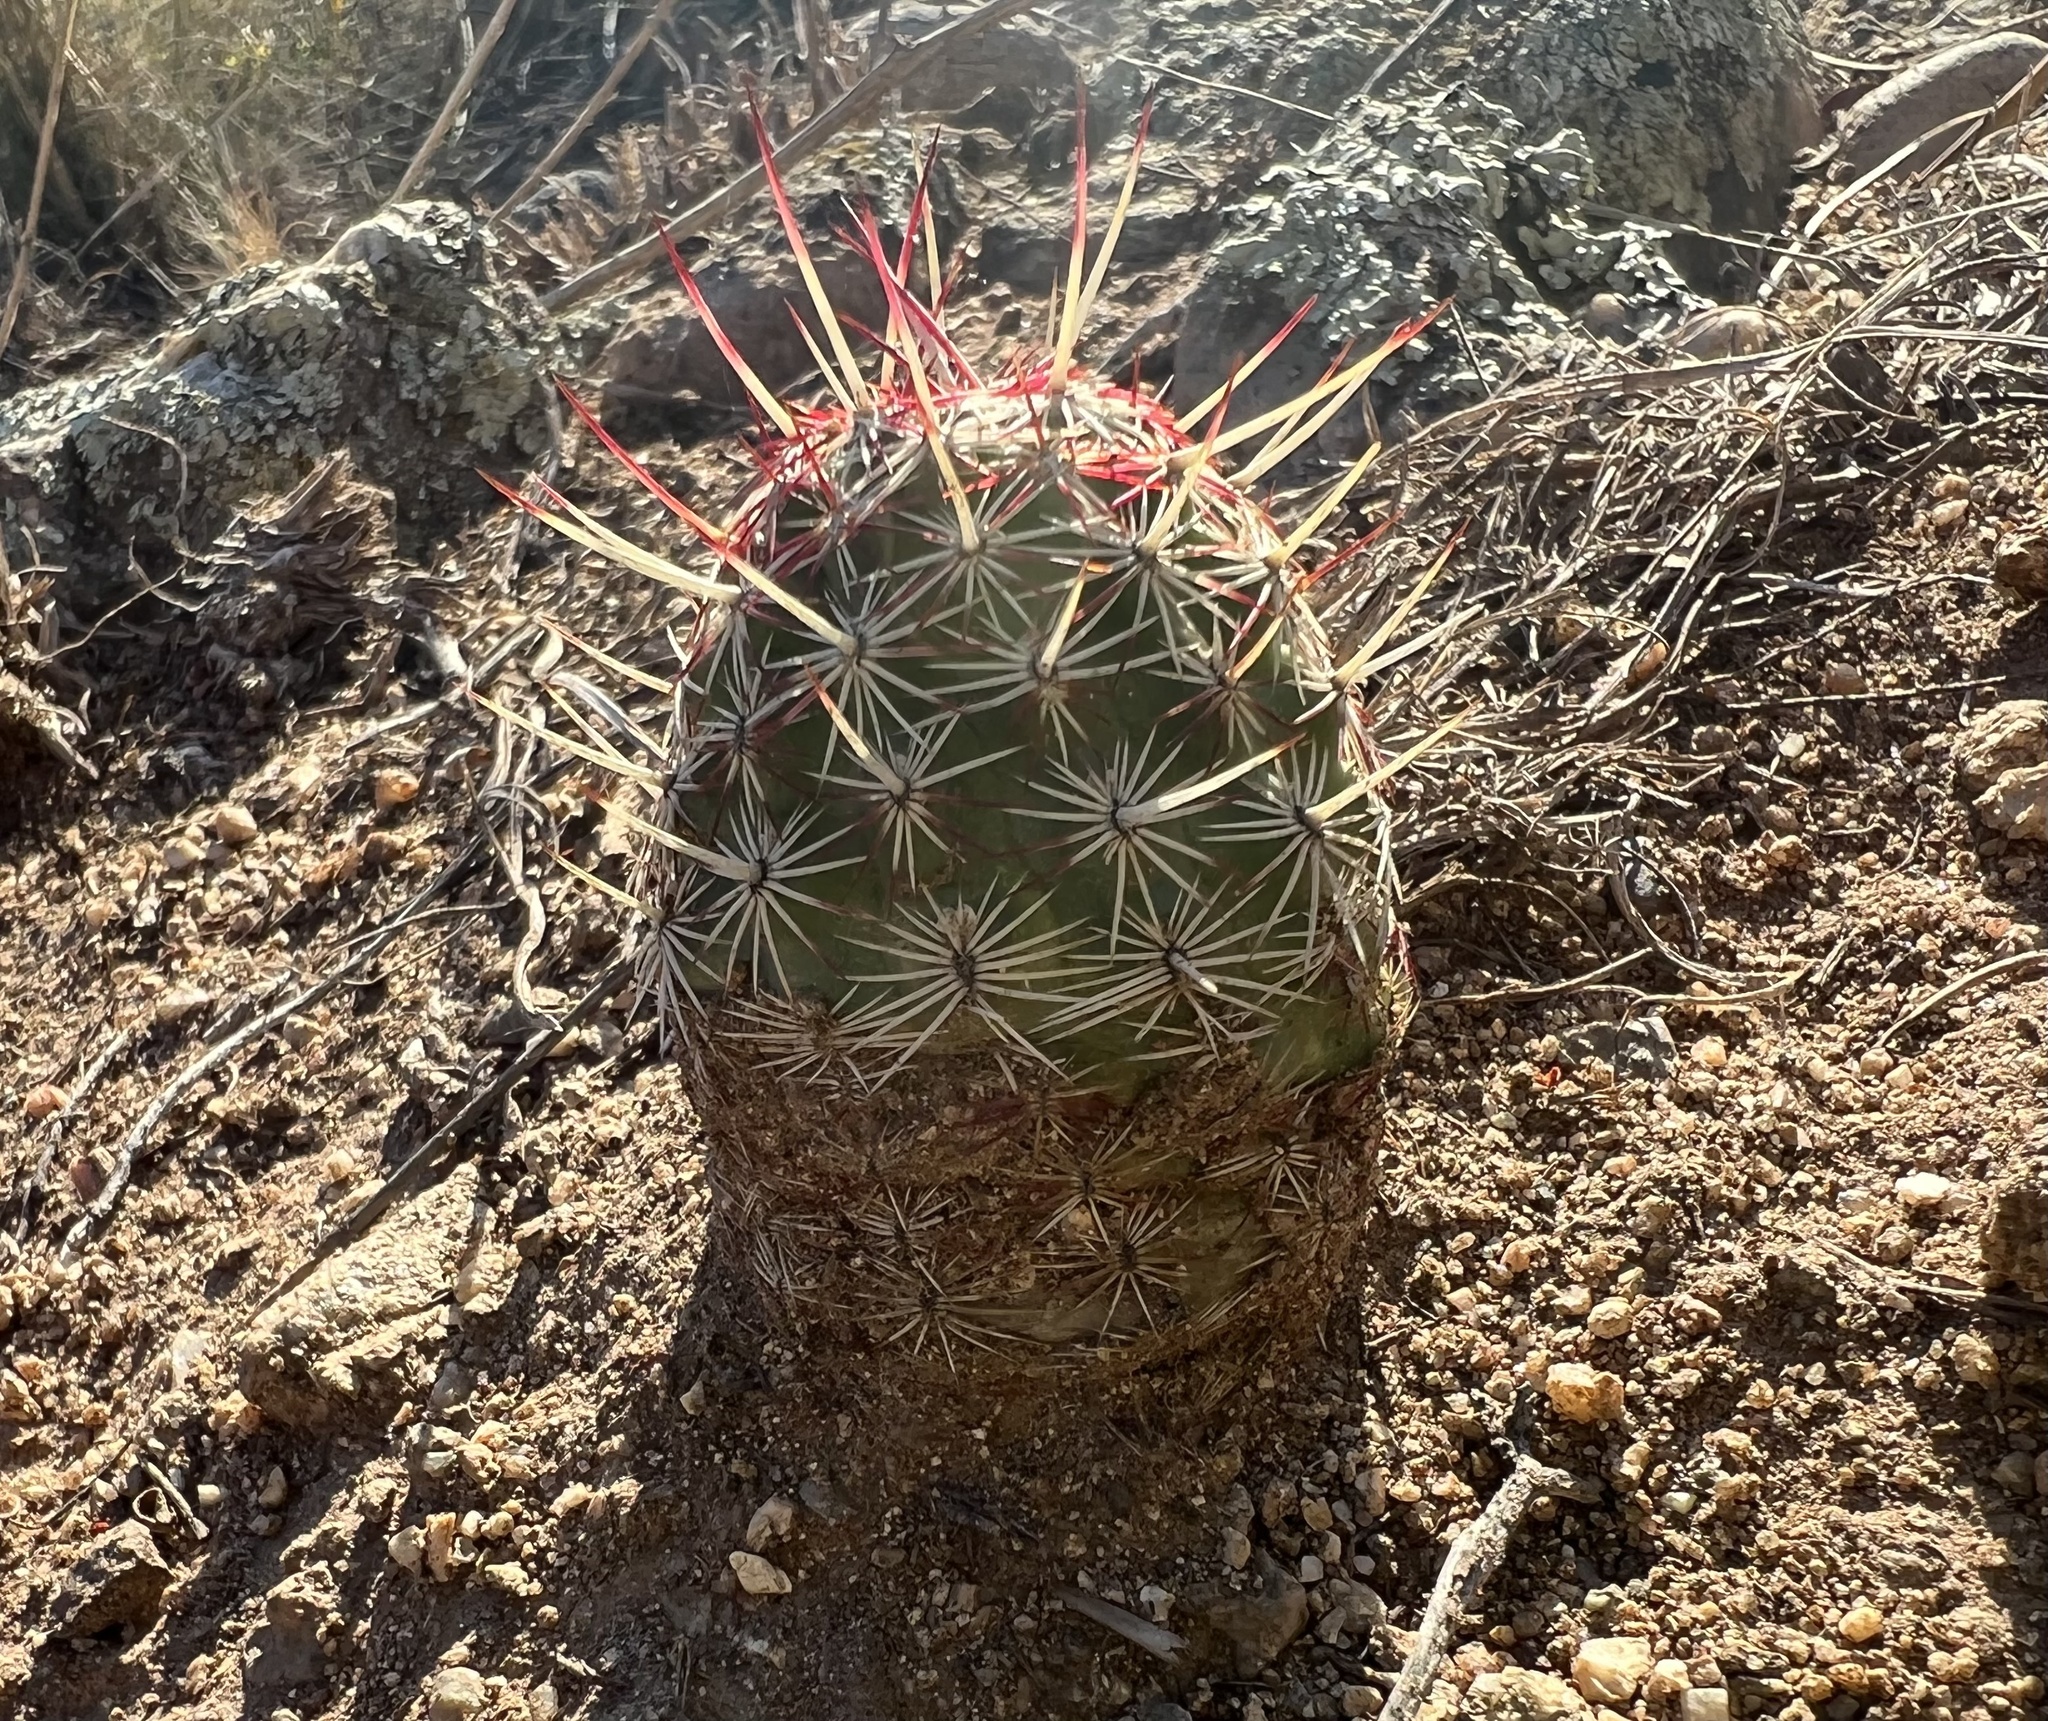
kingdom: Plantae
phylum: Tracheophyta
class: Magnoliopsida
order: Caryophyllales
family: Cactaceae
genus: Echinocereus
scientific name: Echinocereus viridiflorus
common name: Nylon hedgehog cactus
